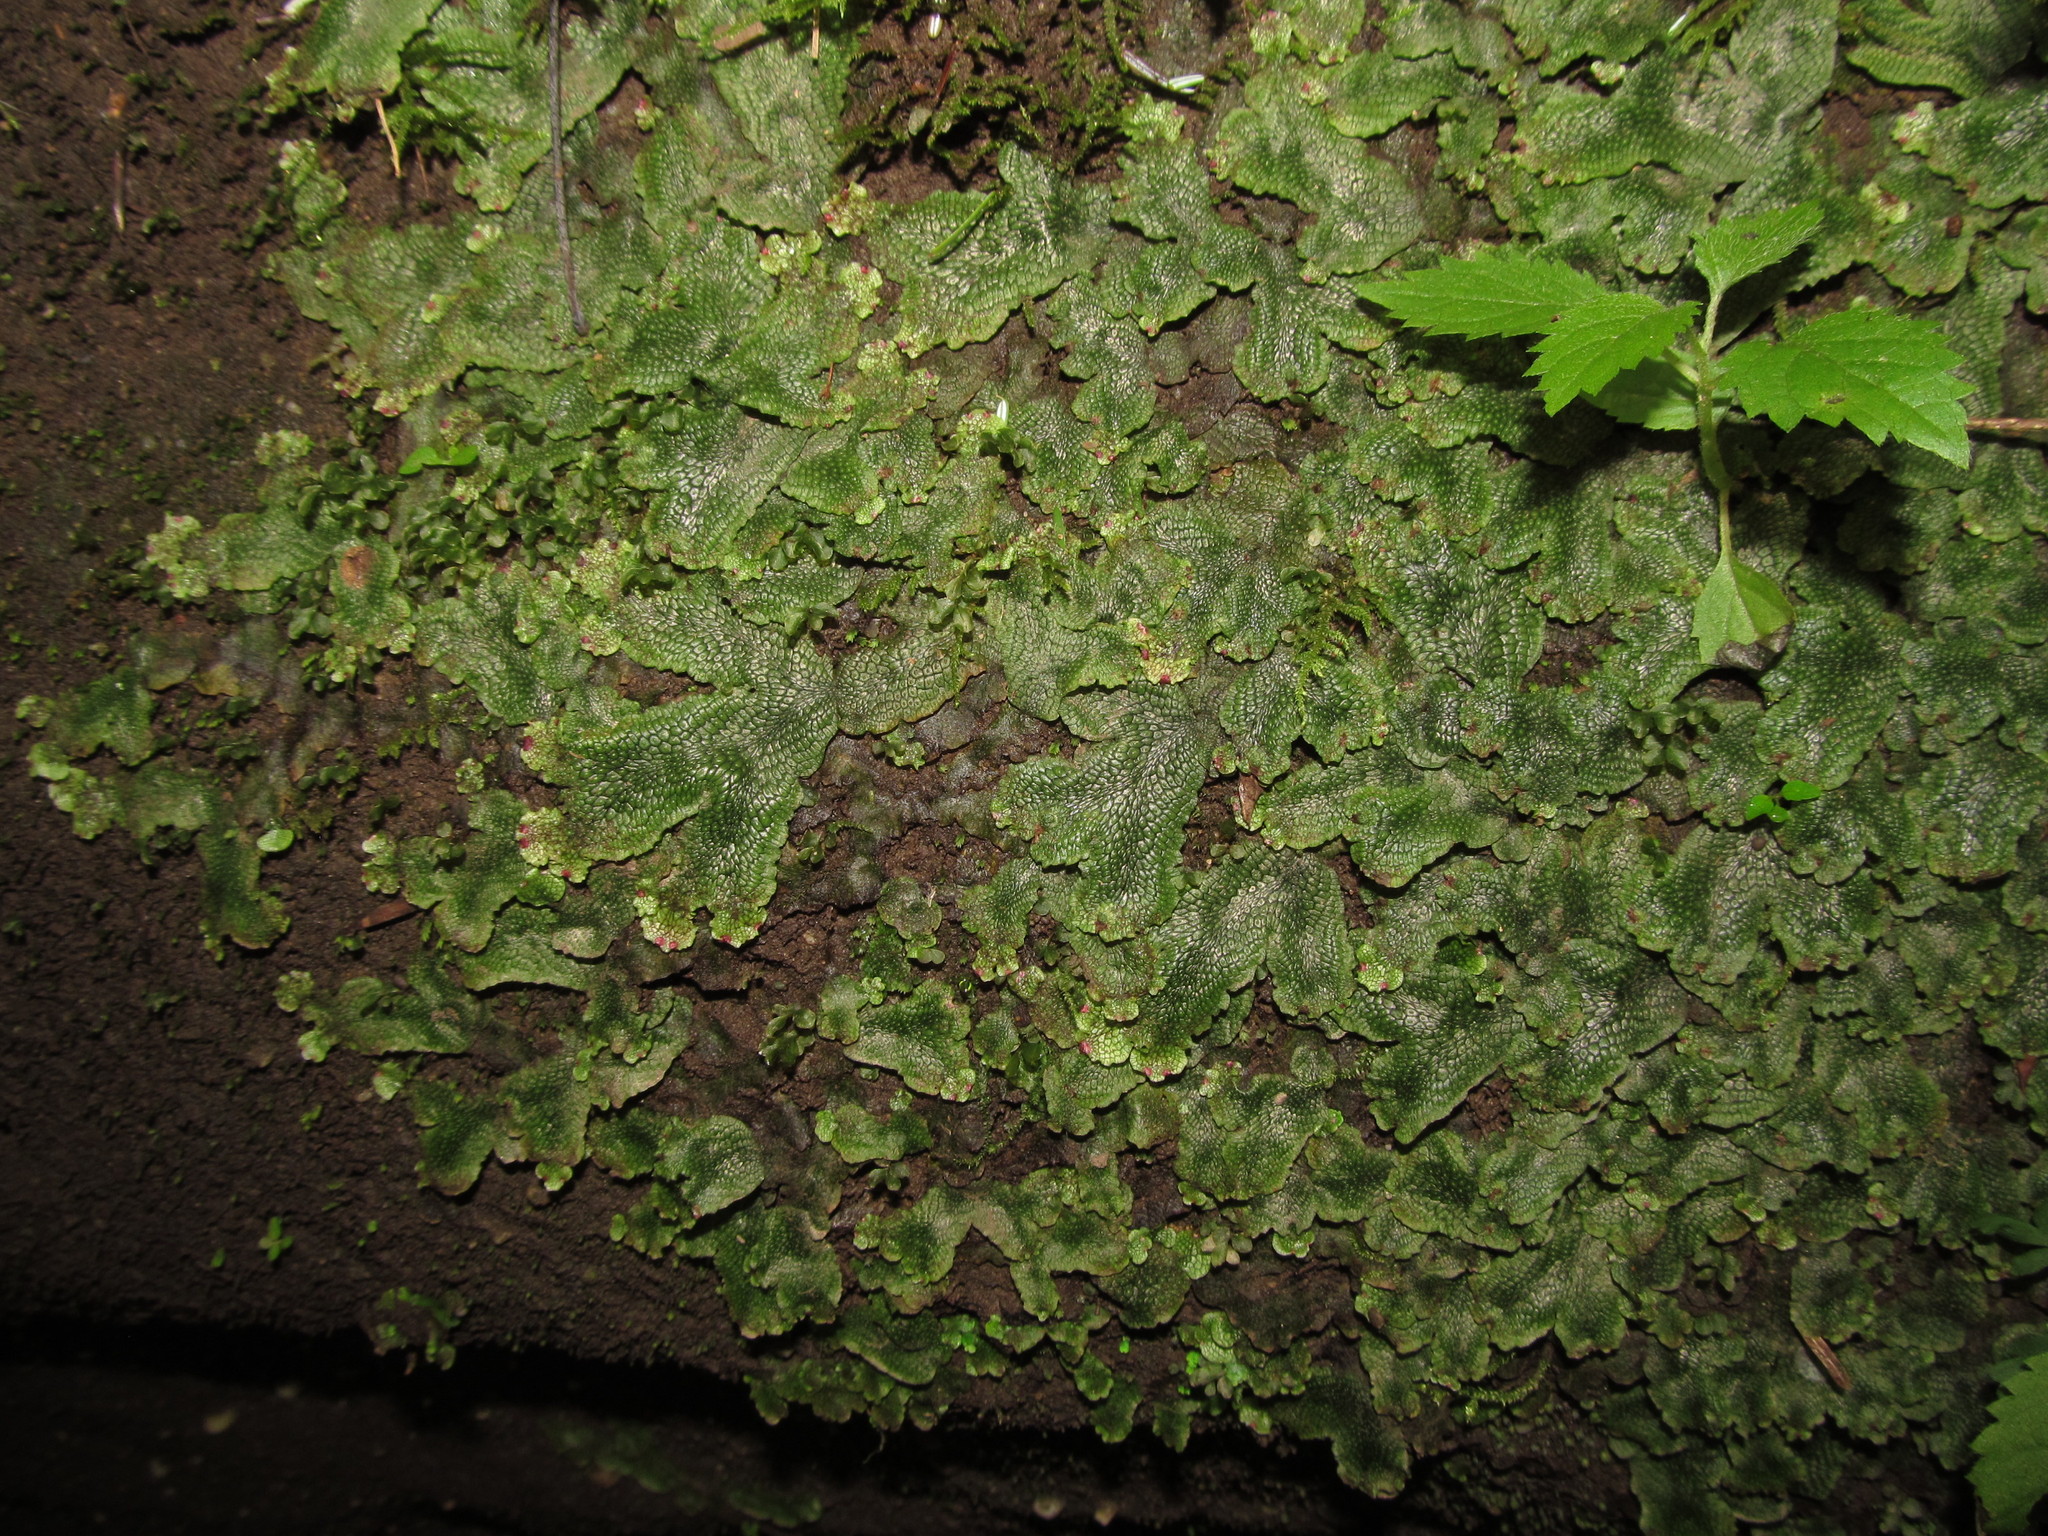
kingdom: Plantae
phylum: Marchantiophyta
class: Marchantiopsida
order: Marchantiales
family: Conocephalaceae
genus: Conocephalum
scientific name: Conocephalum salebrosum
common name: Cat-tongue liverwort
